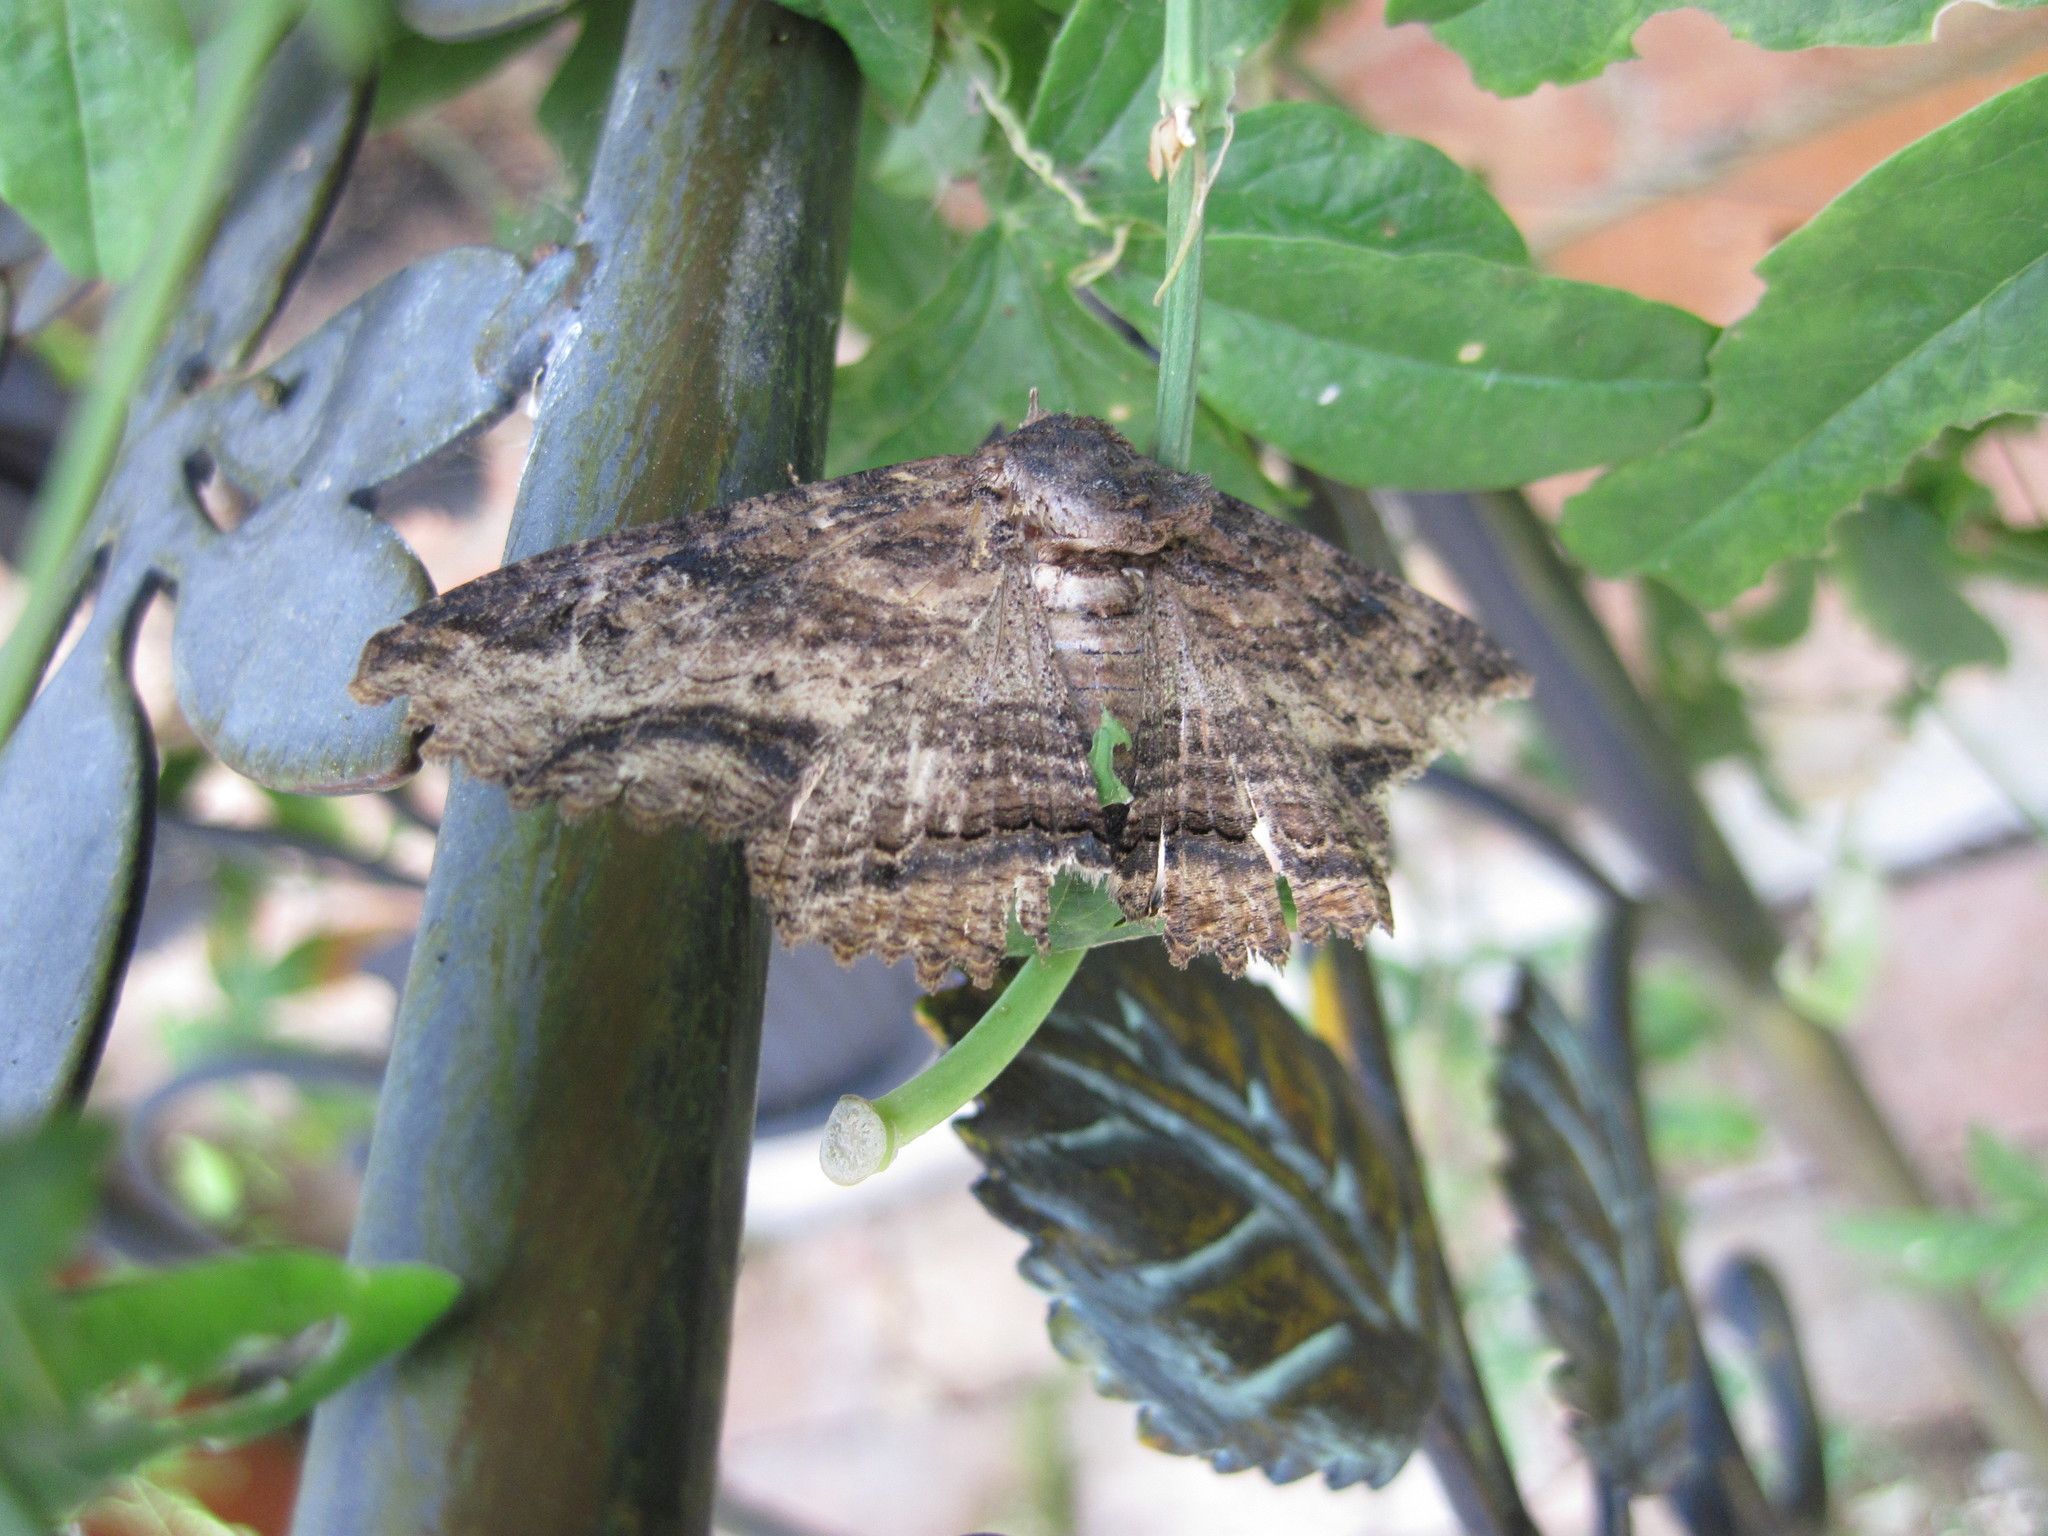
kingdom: Animalia
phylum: Arthropoda
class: Insecta
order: Lepidoptera
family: Erebidae
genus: Zale
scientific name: Zale lunata
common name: Lunate zale moth
